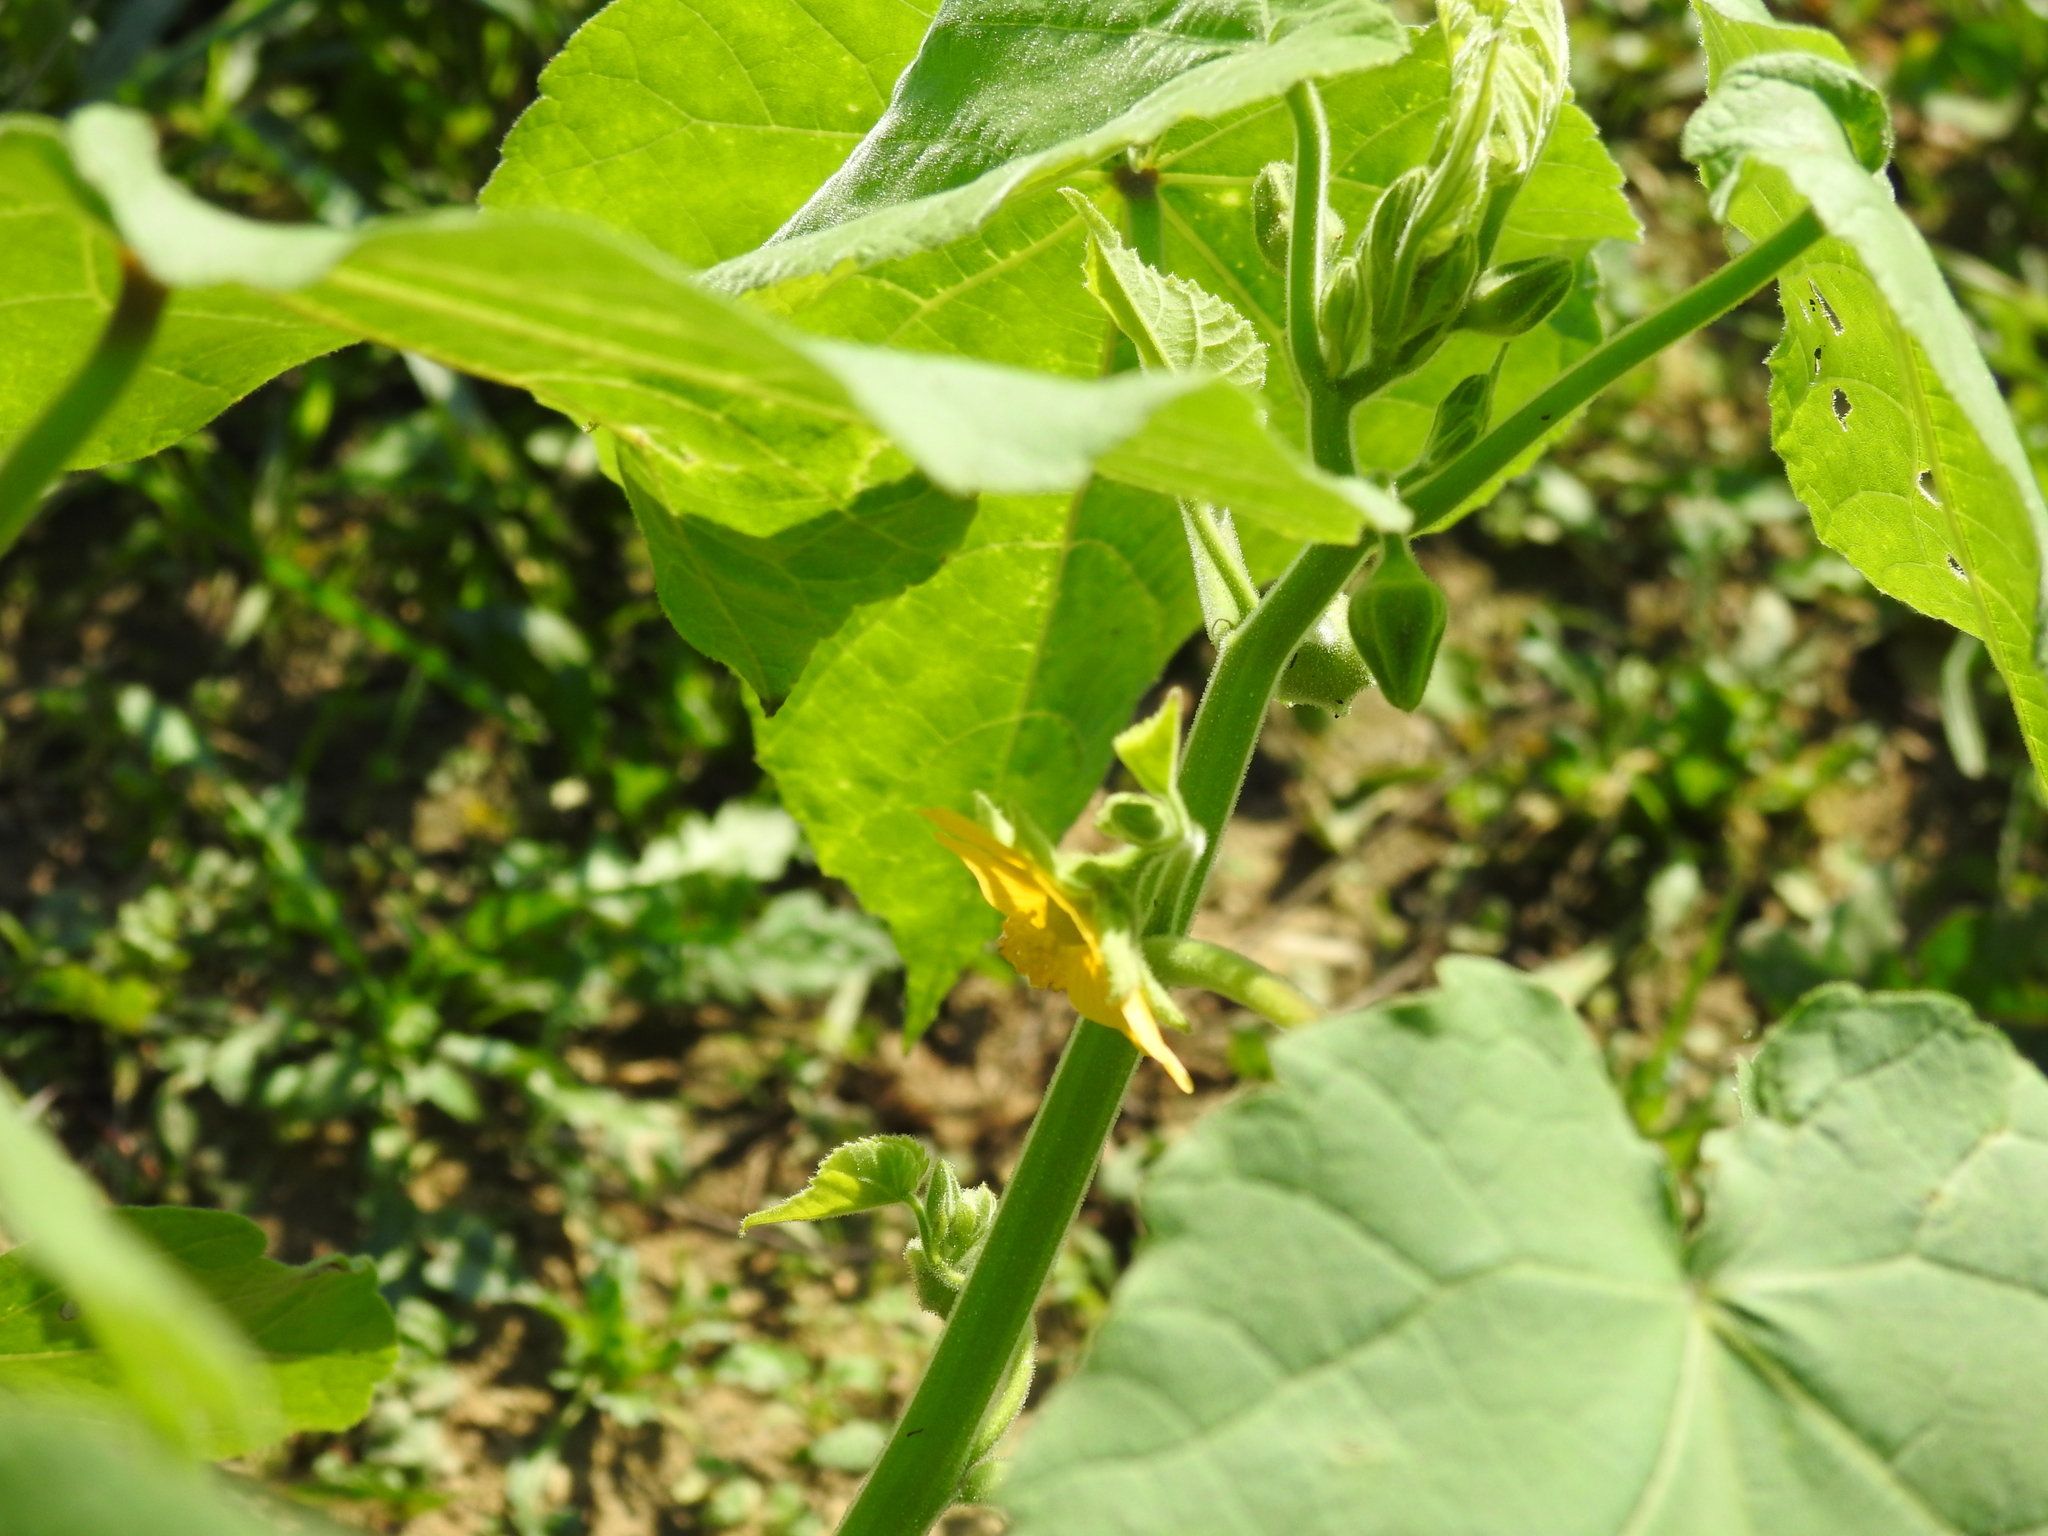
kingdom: Plantae
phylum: Tracheophyta
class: Magnoliopsida
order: Malvales
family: Malvaceae
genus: Abutilon
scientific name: Abutilon theophrasti
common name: Velvetleaf
